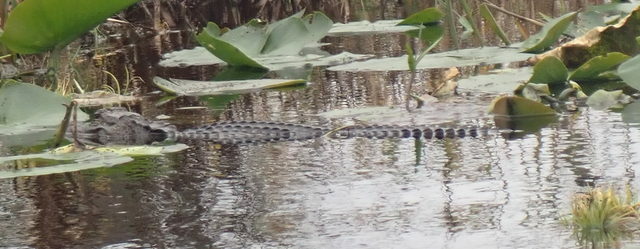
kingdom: Animalia
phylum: Chordata
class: Crocodylia
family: Alligatoridae
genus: Alligator
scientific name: Alligator mississippiensis
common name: American alligator
